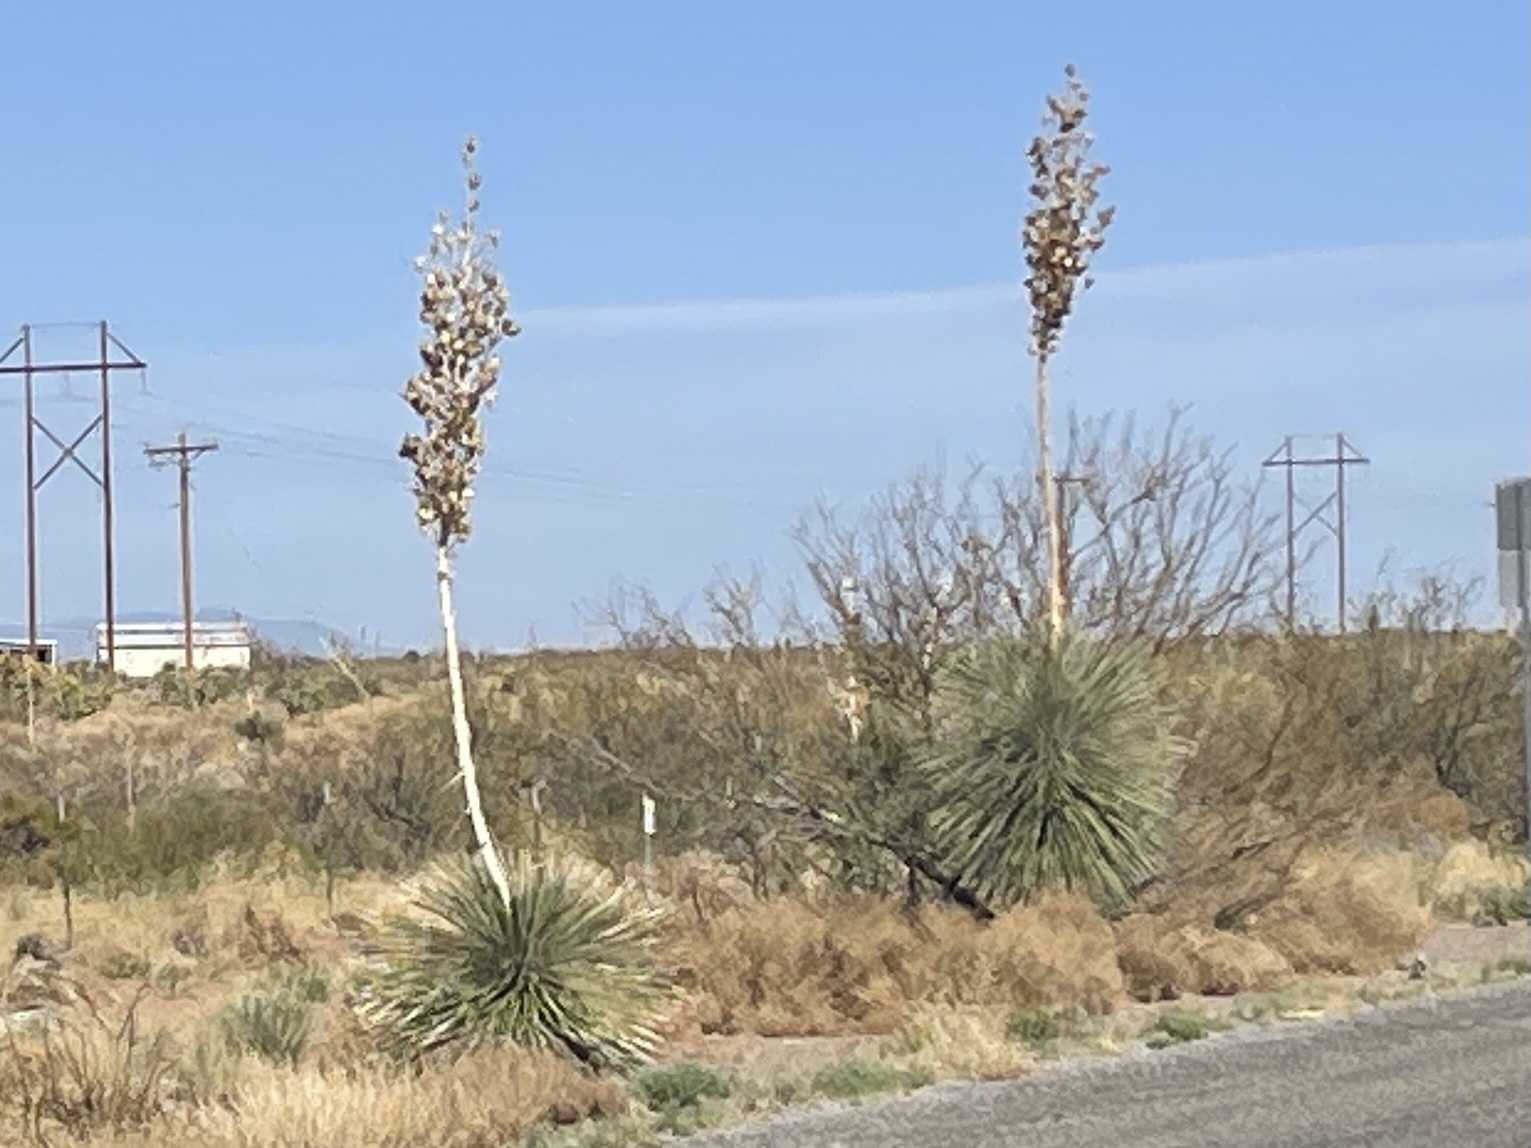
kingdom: Plantae
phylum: Tracheophyta
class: Liliopsida
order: Asparagales
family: Asparagaceae
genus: Yucca
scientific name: Yucca elata
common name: Palmella
